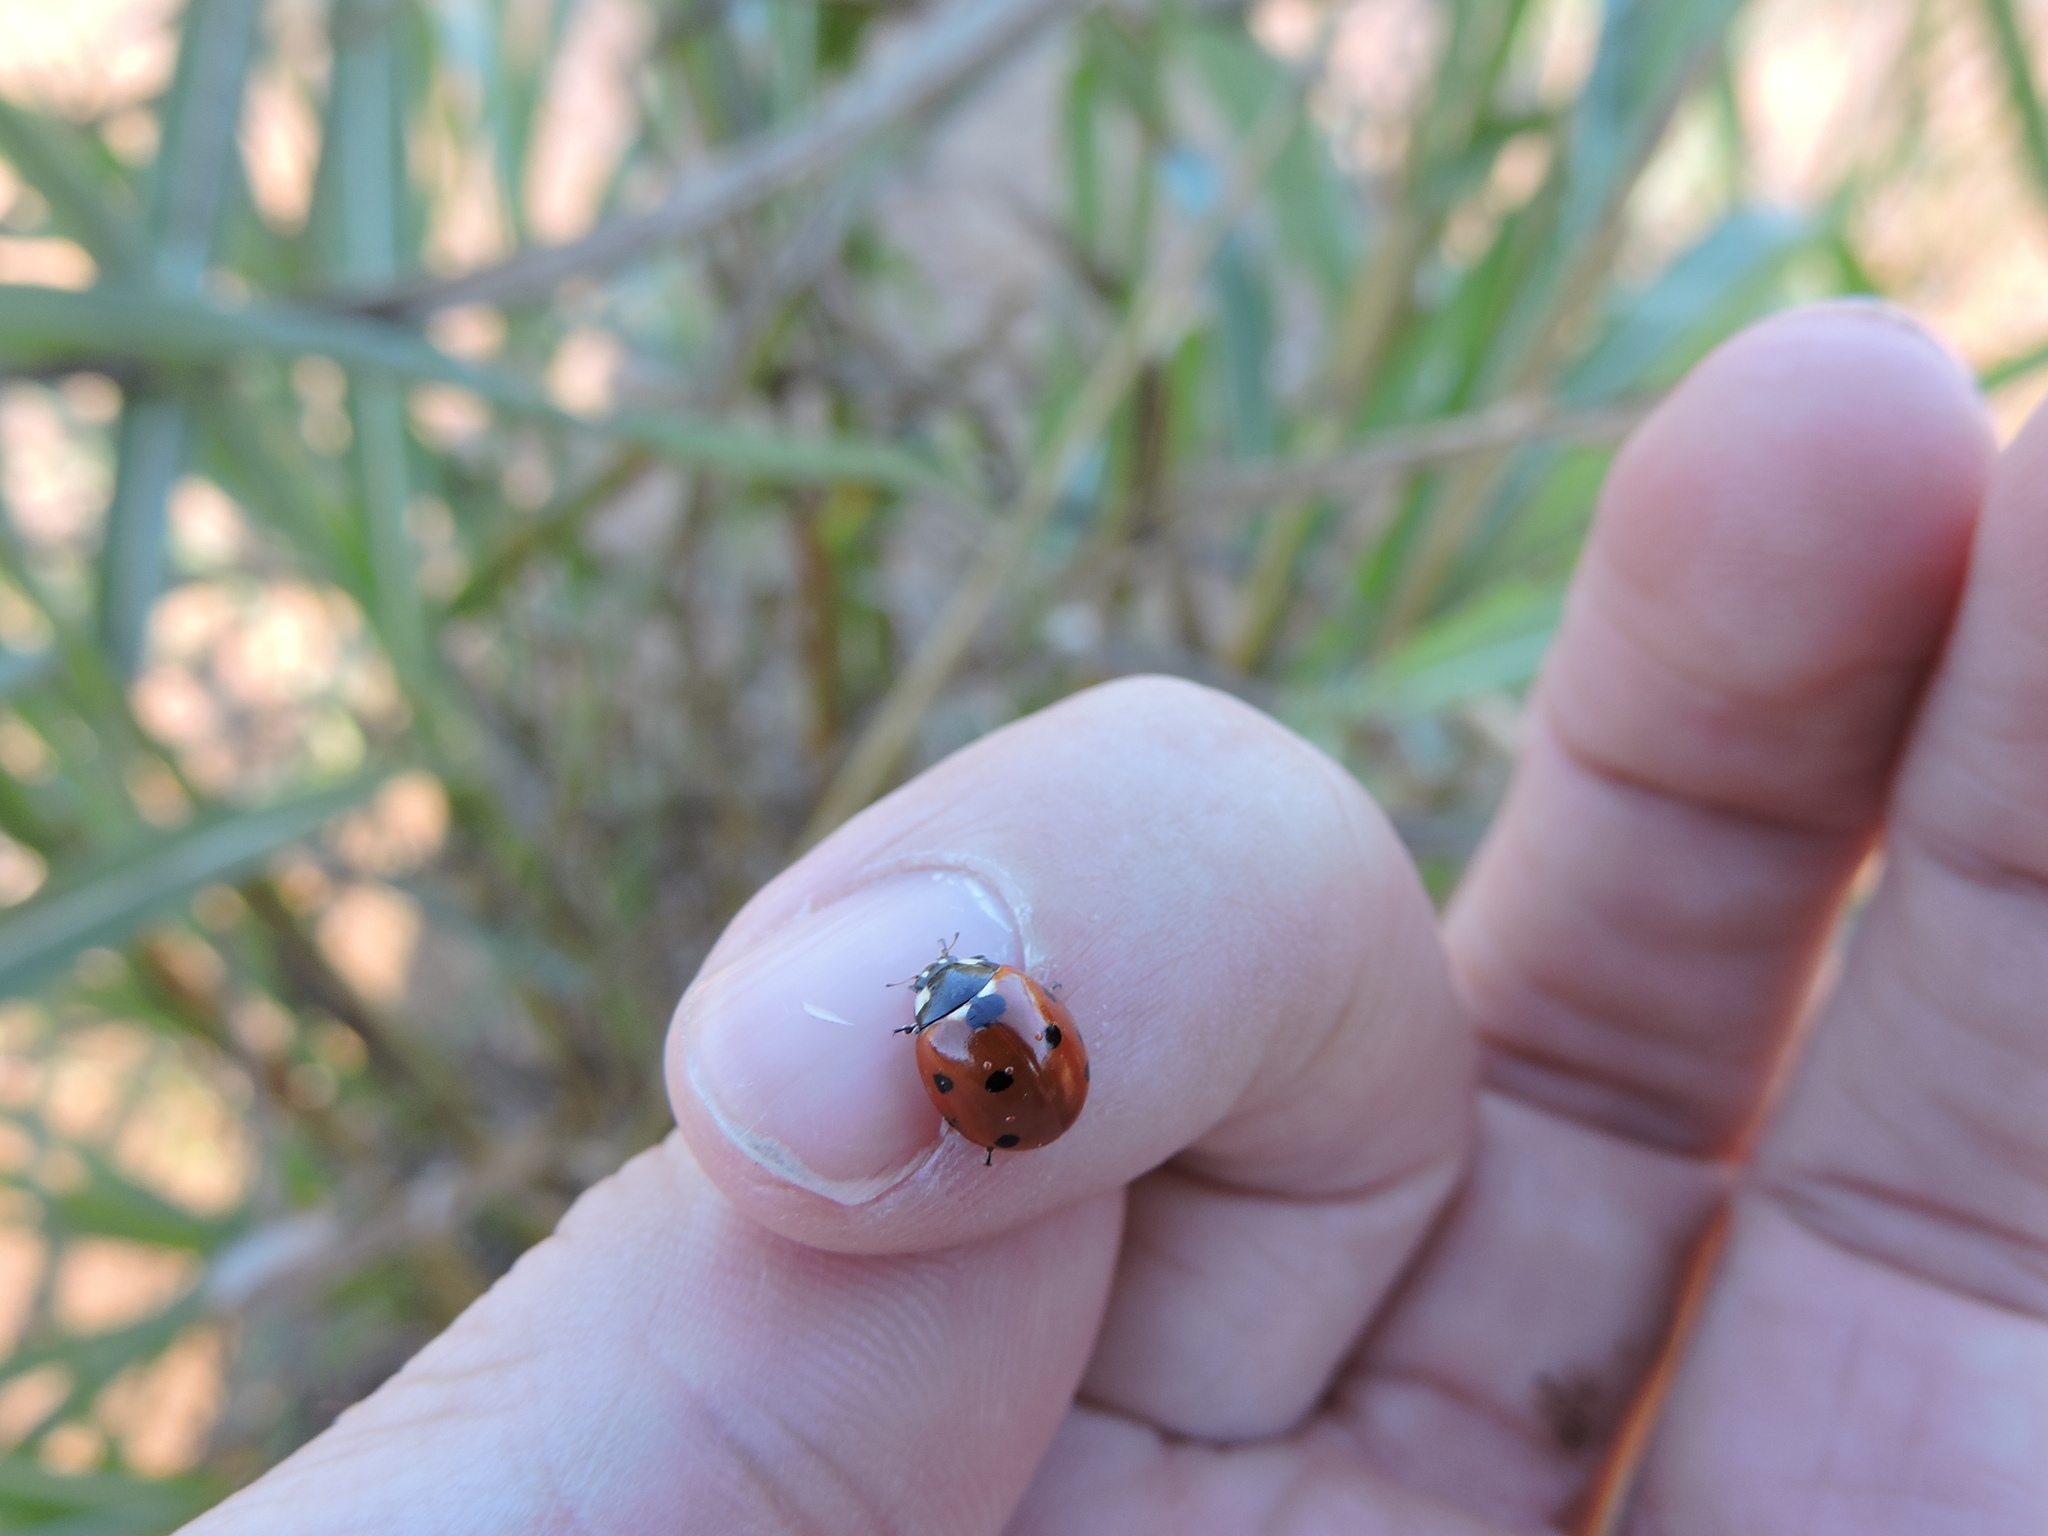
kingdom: Animalia
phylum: Arthropoda
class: Insecta
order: Coleoptera
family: Coccinellidae
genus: Coccinella
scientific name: Coccinella septempunctata
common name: Sevenspotted lady beetle
